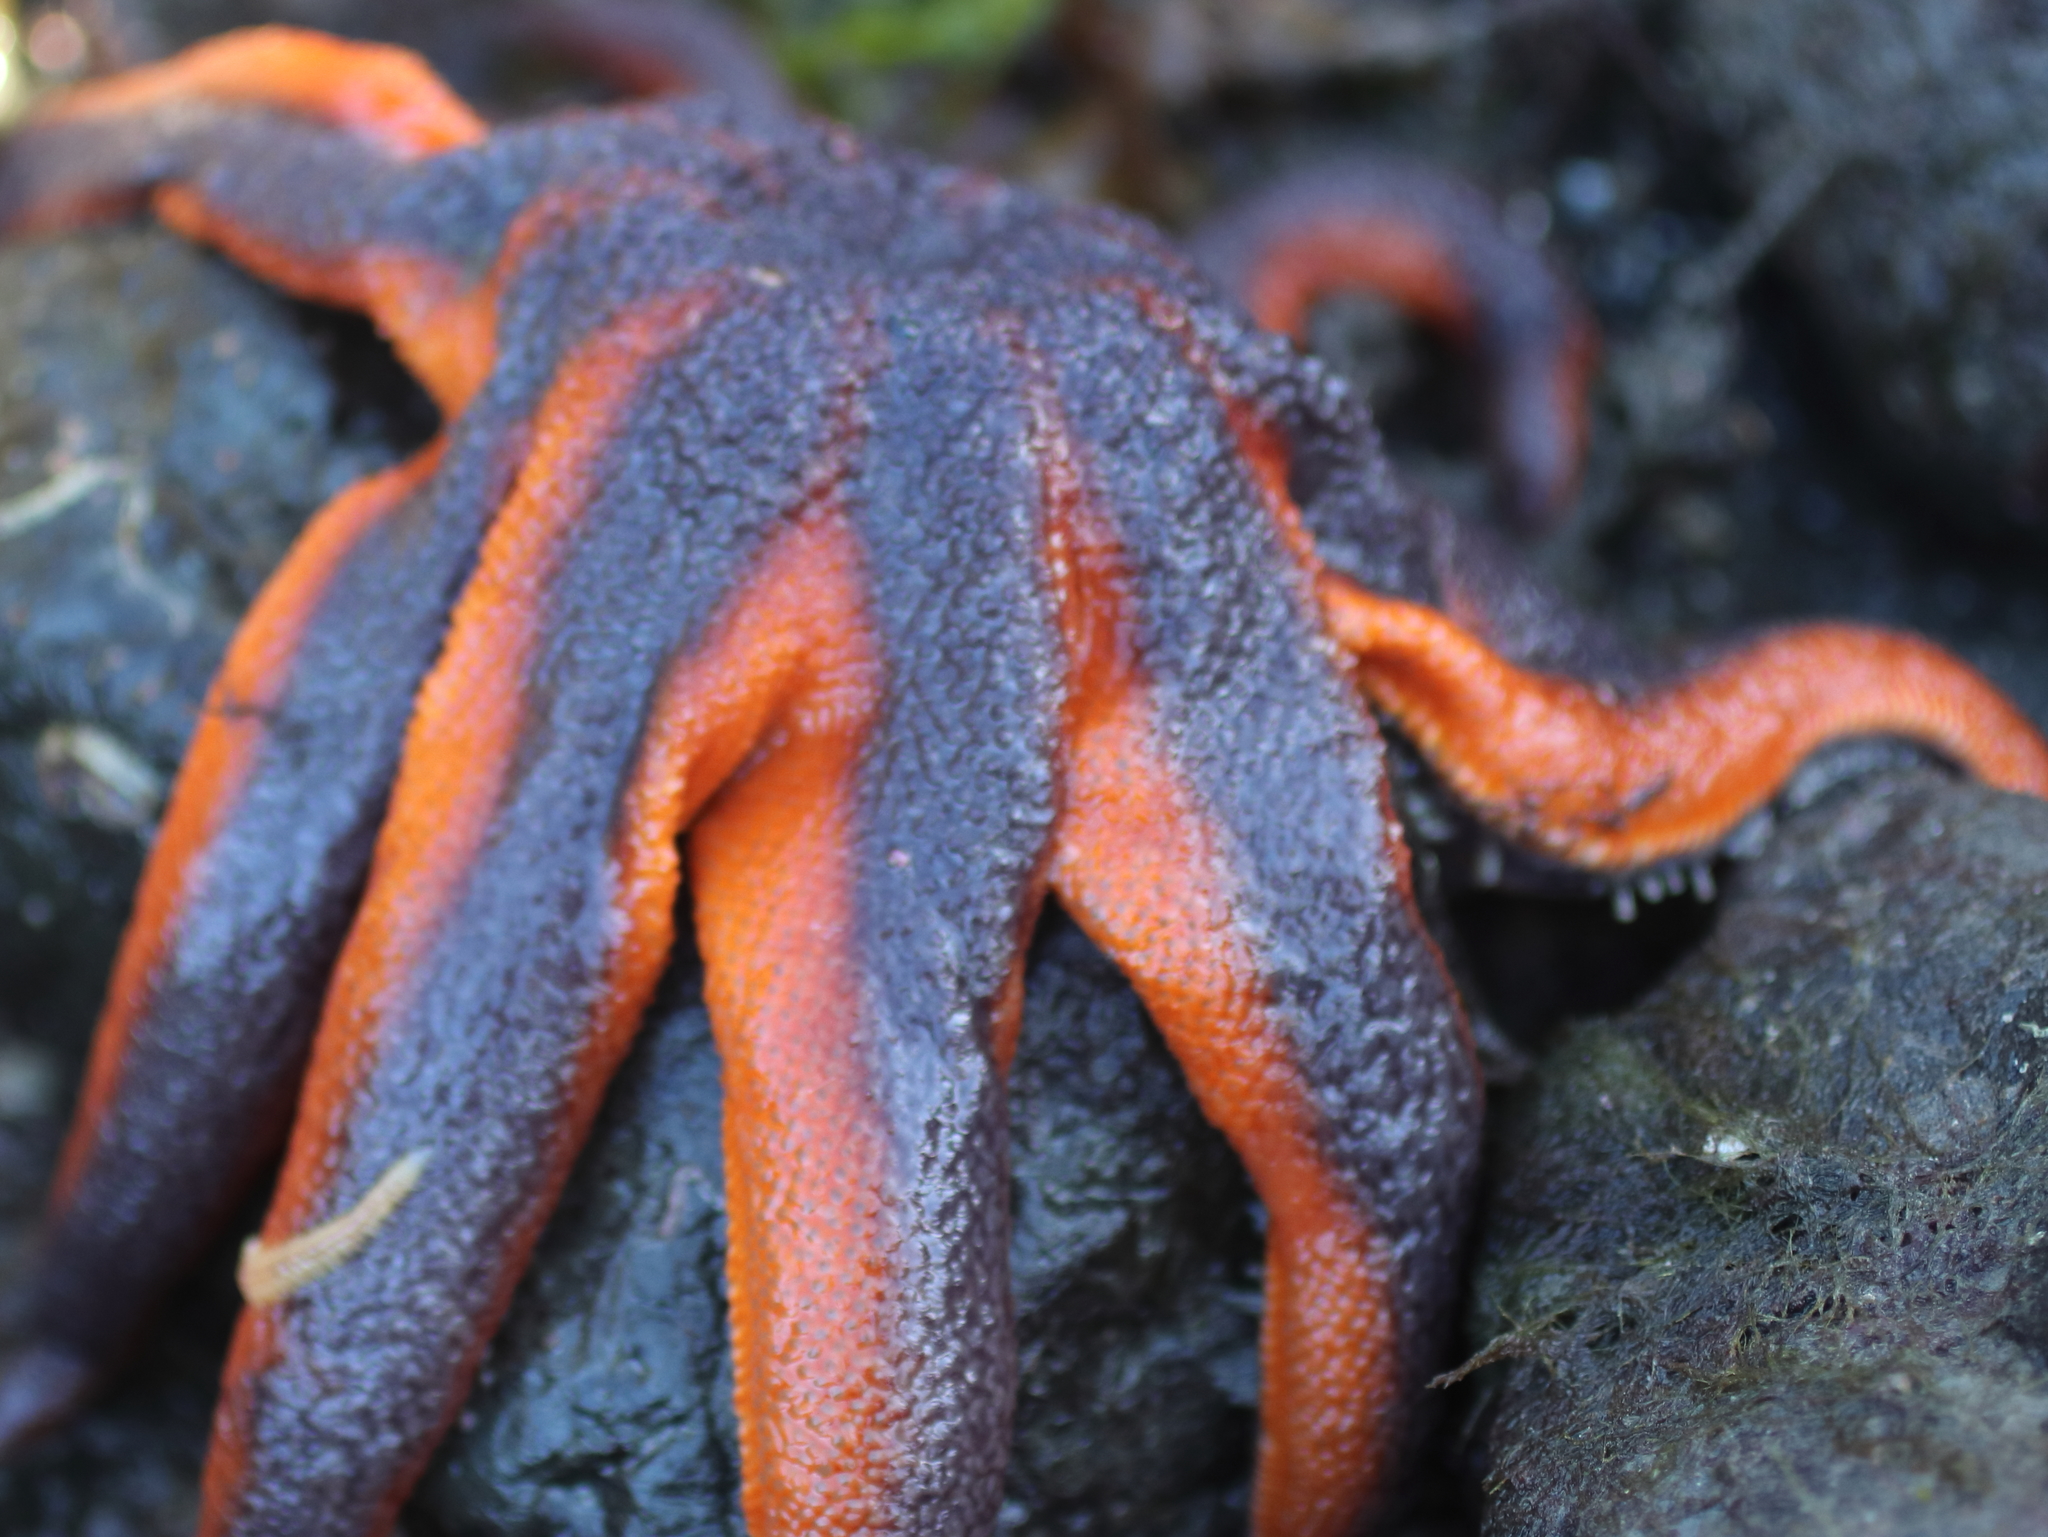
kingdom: Animalia
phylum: Echinodermata
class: Asteroidea
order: Valvatida
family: Solasteridae
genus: Solaster
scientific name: Solaster stimpsoni
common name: Orange sun star
